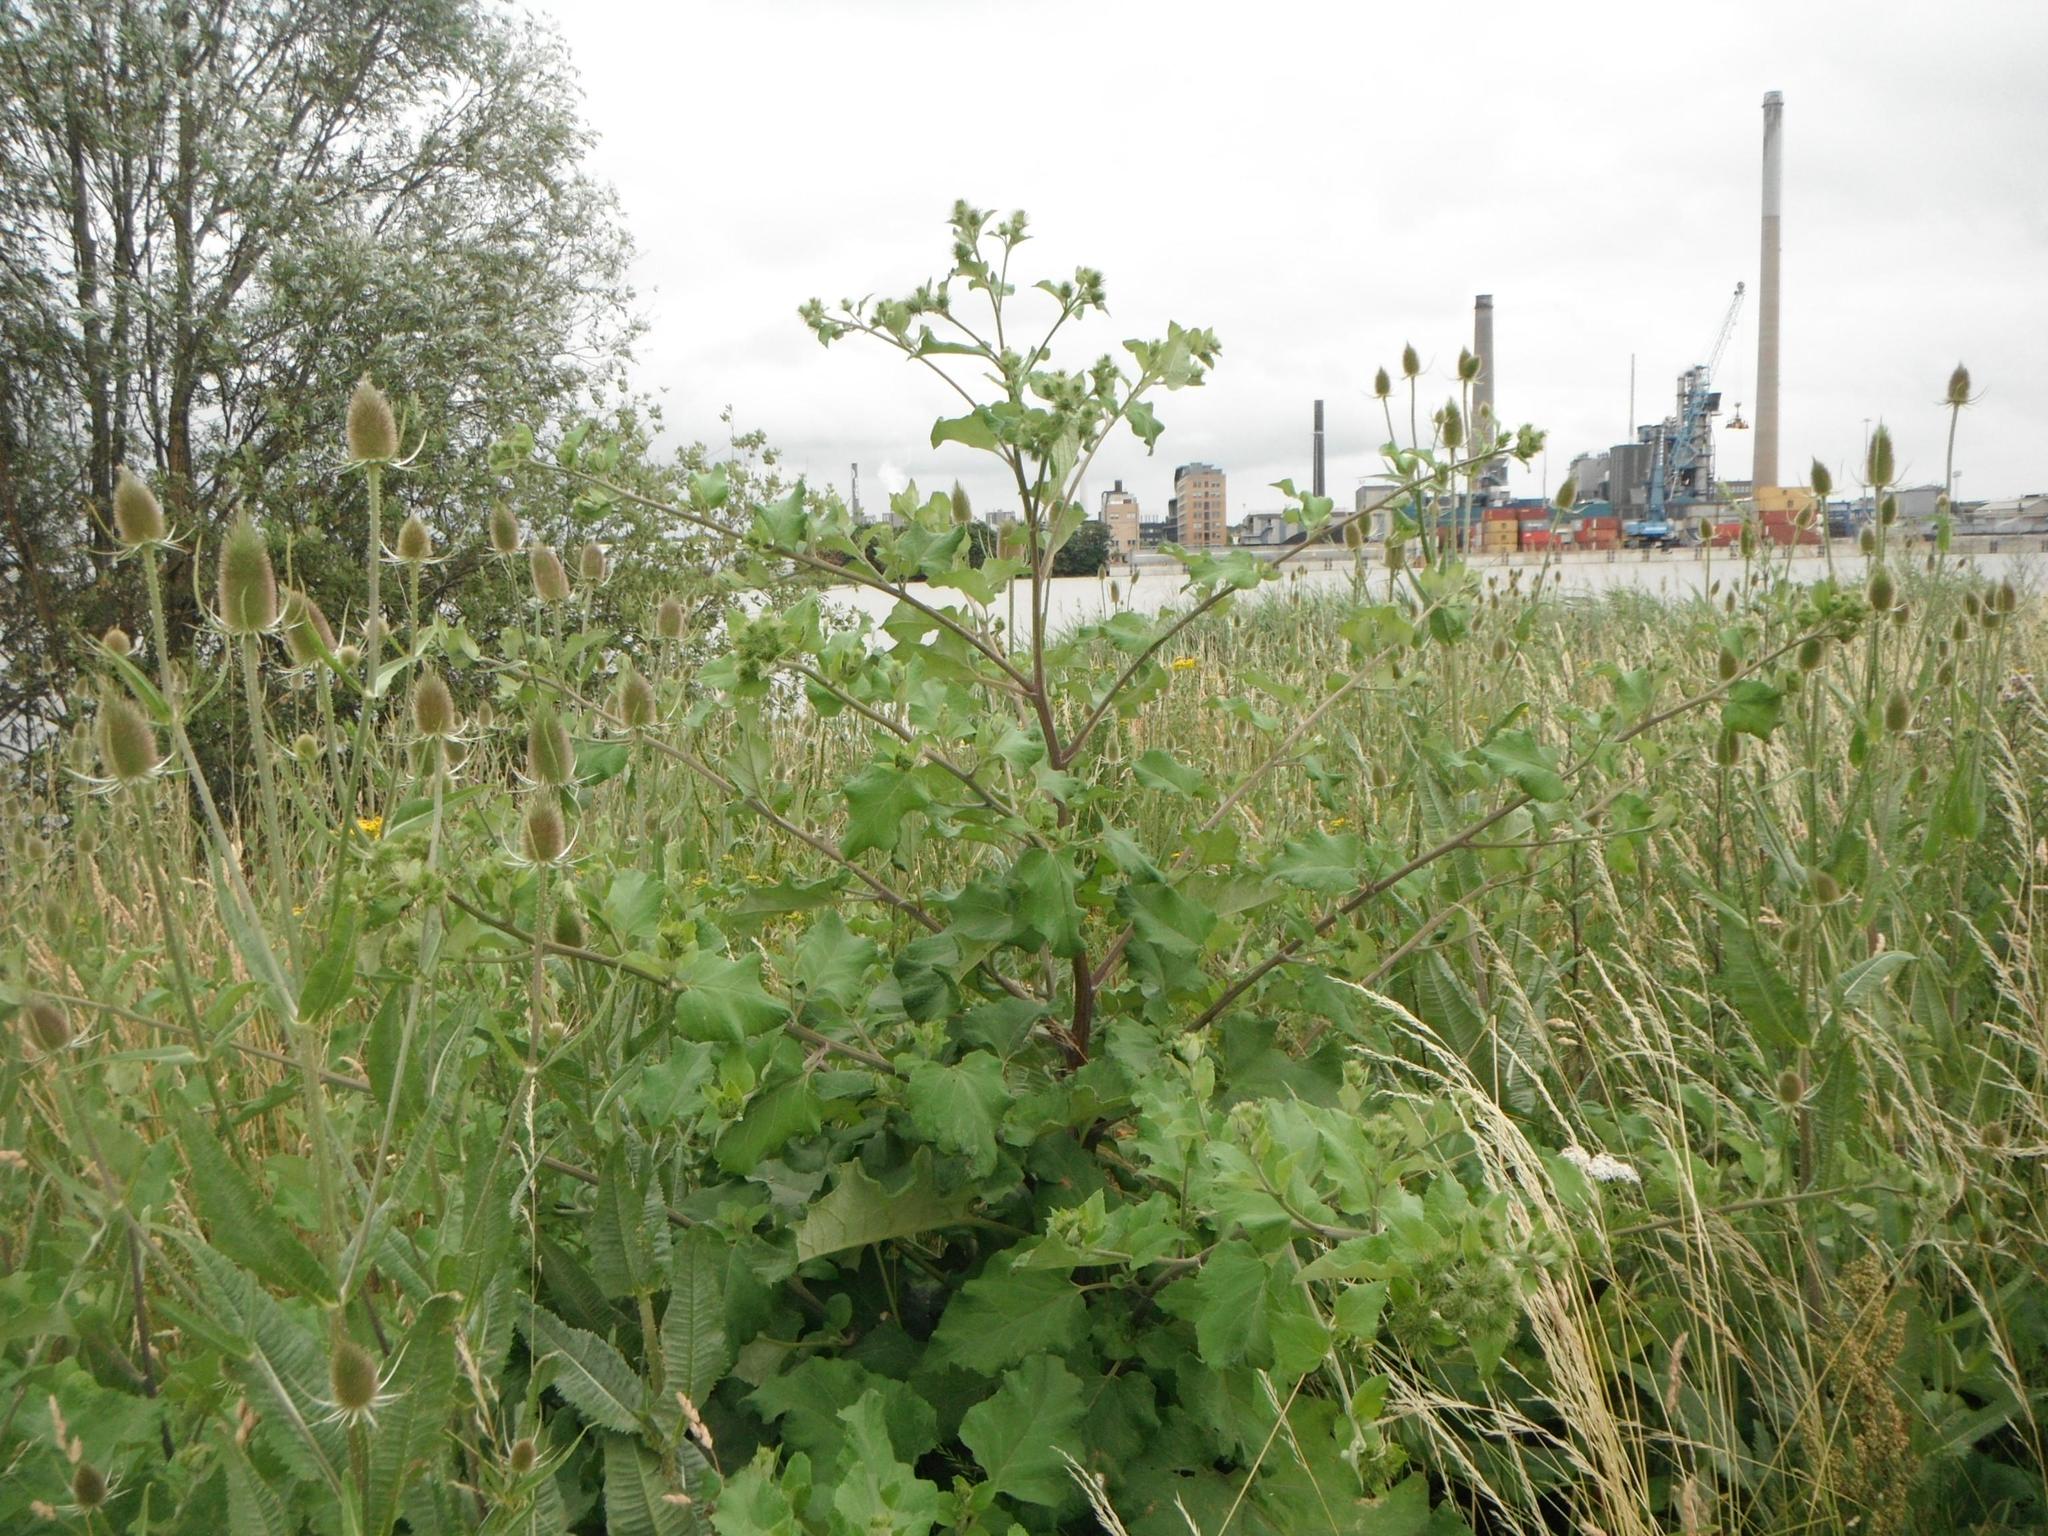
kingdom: Plantae
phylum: Tracheophyta
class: Magnoliopsida
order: Asterales
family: Asteraceae
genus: Arctium
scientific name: Arctium minus
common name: Lesser burdock
